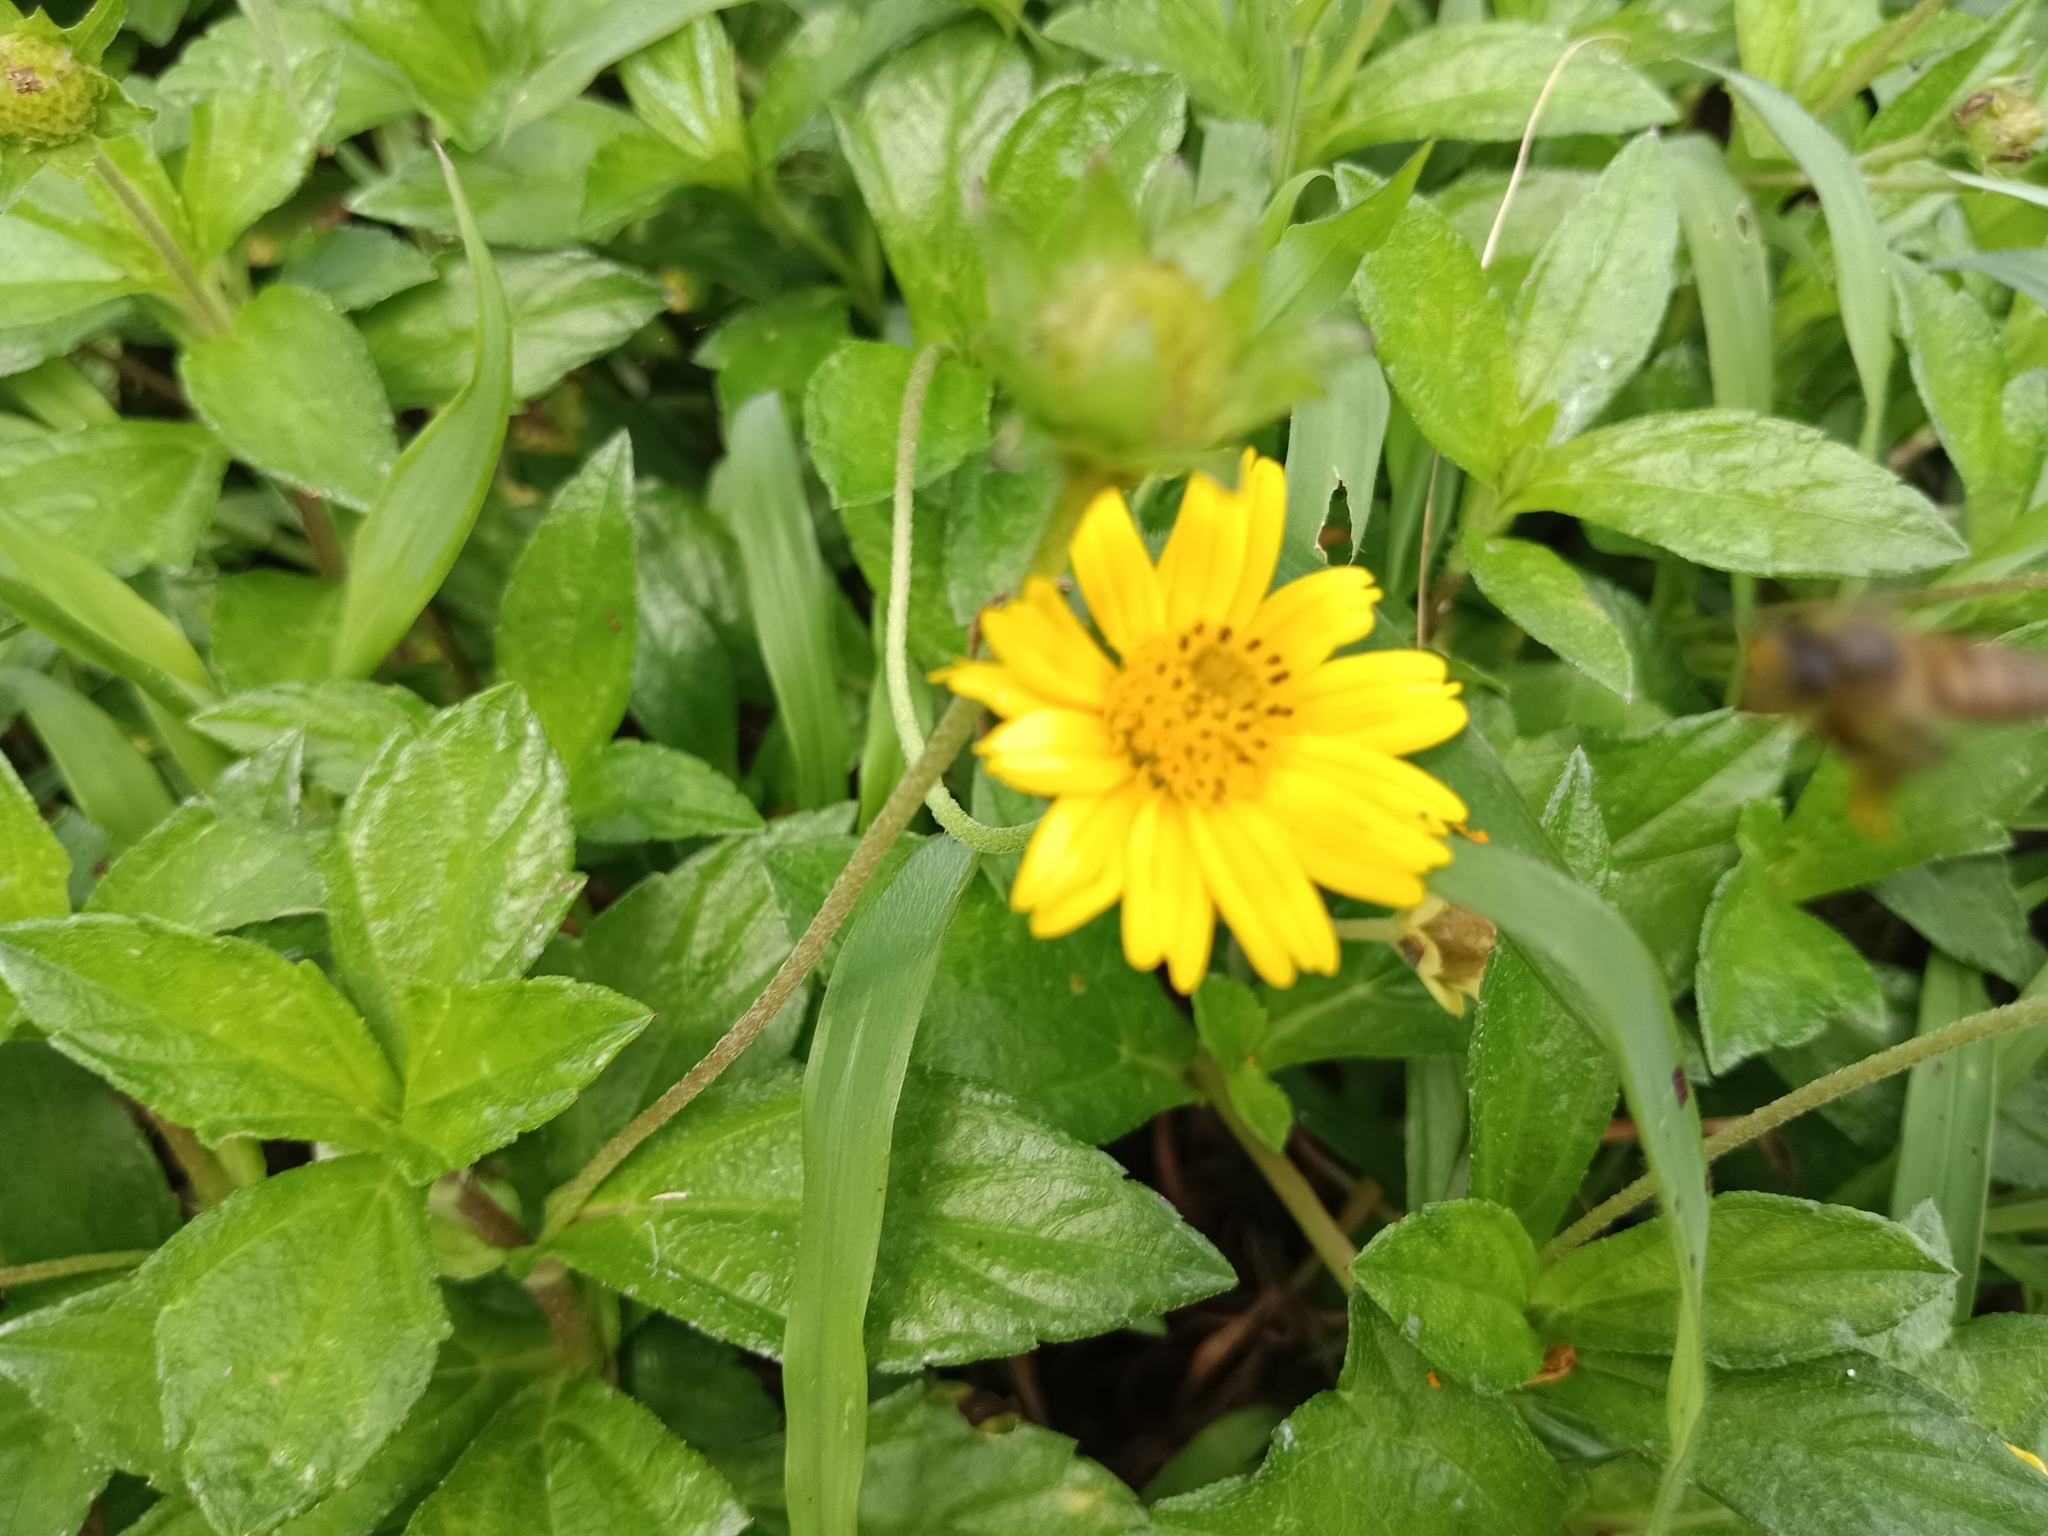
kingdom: Plantae
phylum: Tracheophyta
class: Magnoliopsida
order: Asterales
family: Asteraceae
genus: Sphagneticola
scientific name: Sphagneticola trilobata
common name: Bay biscayne creeping-oxeye
